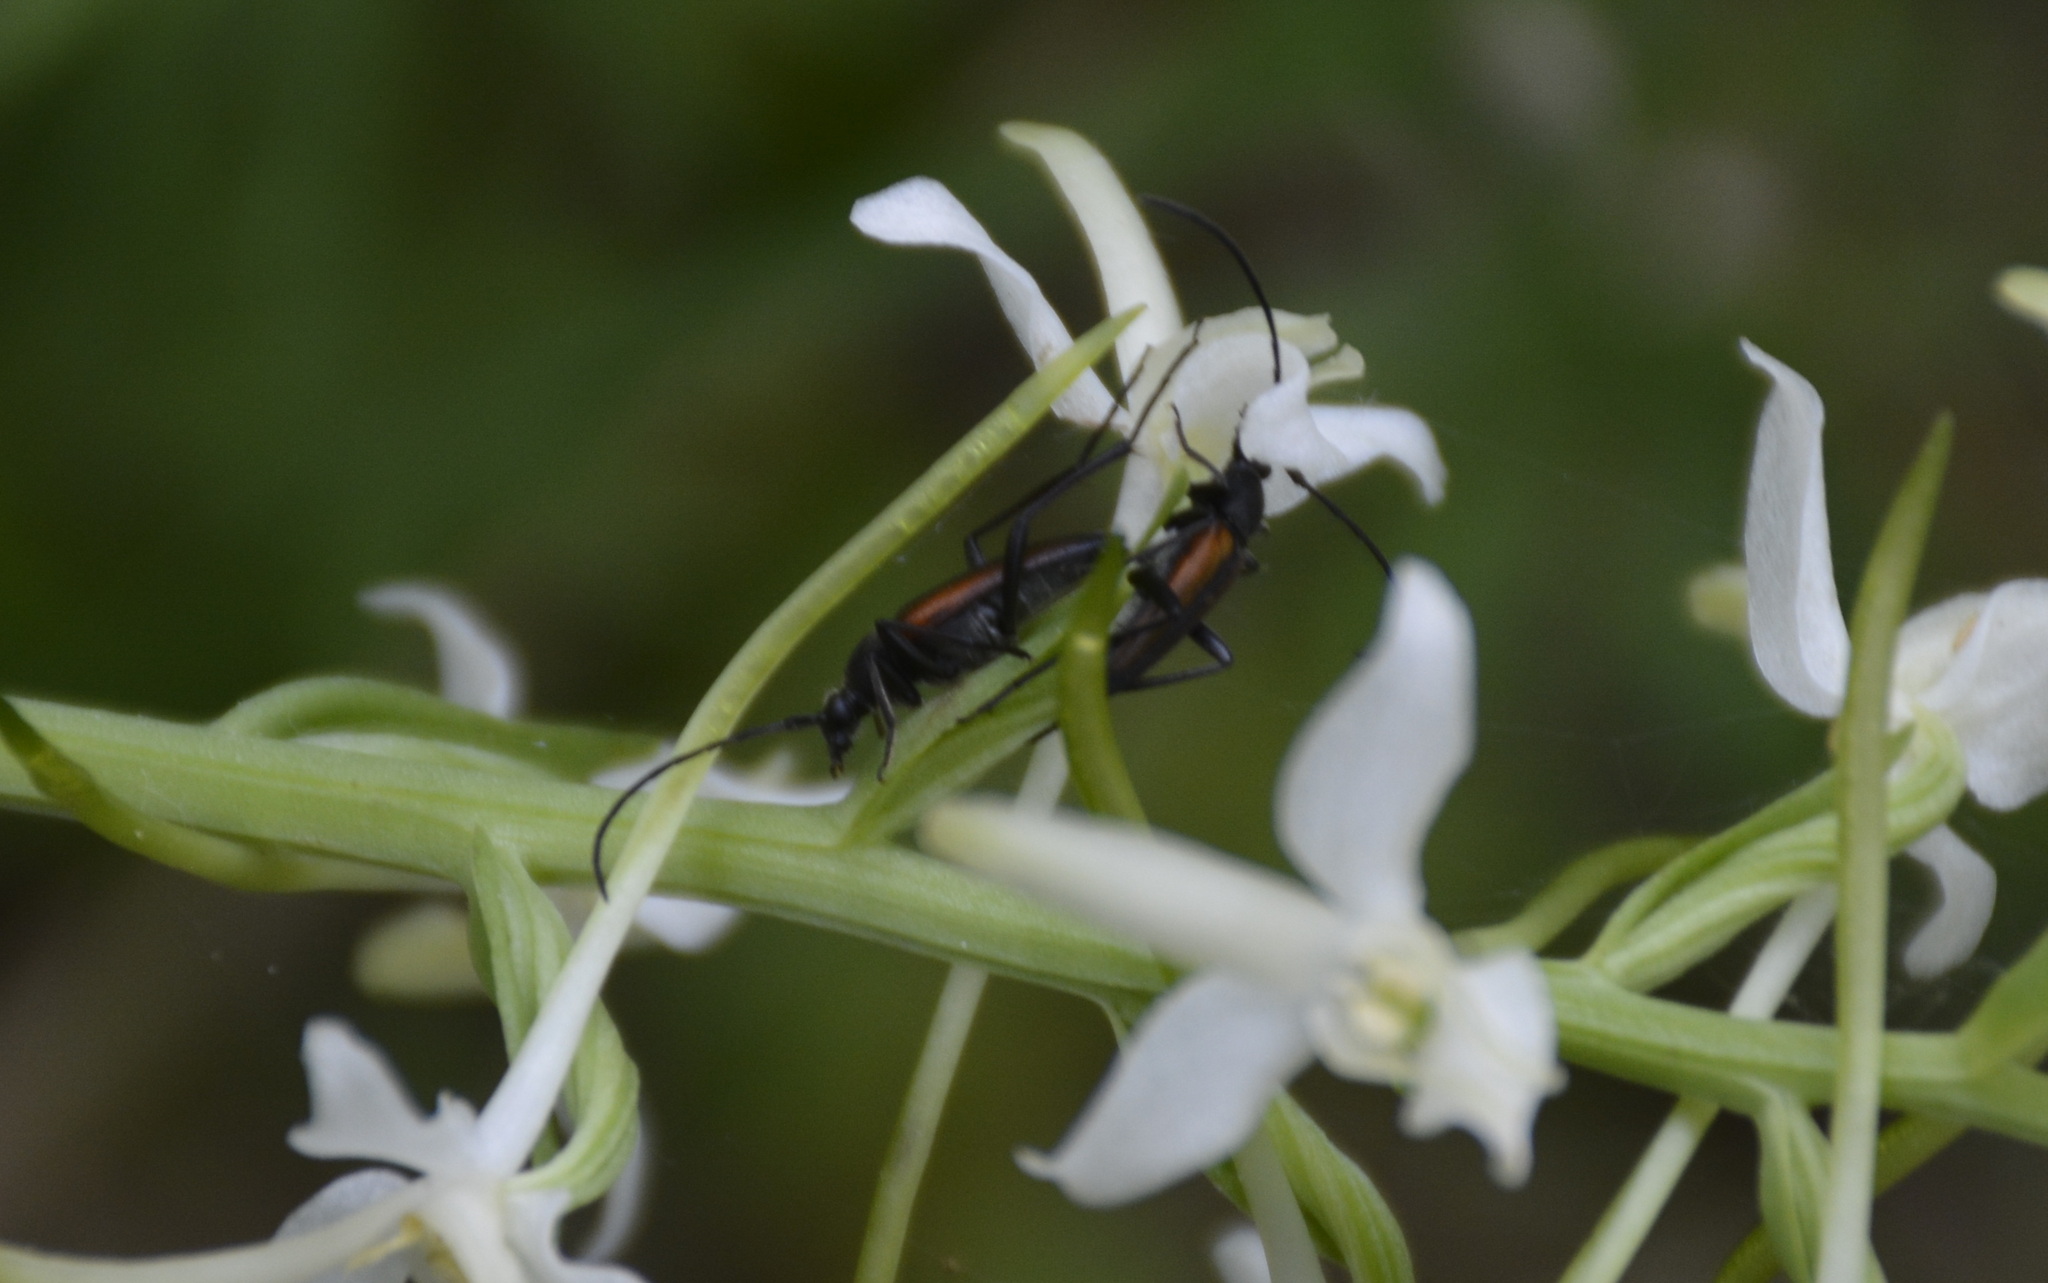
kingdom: Animalia
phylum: Arthropoda
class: Insecta
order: Coleoptera
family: Cerambycidae
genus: Stenurella
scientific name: Stenurella melanura
